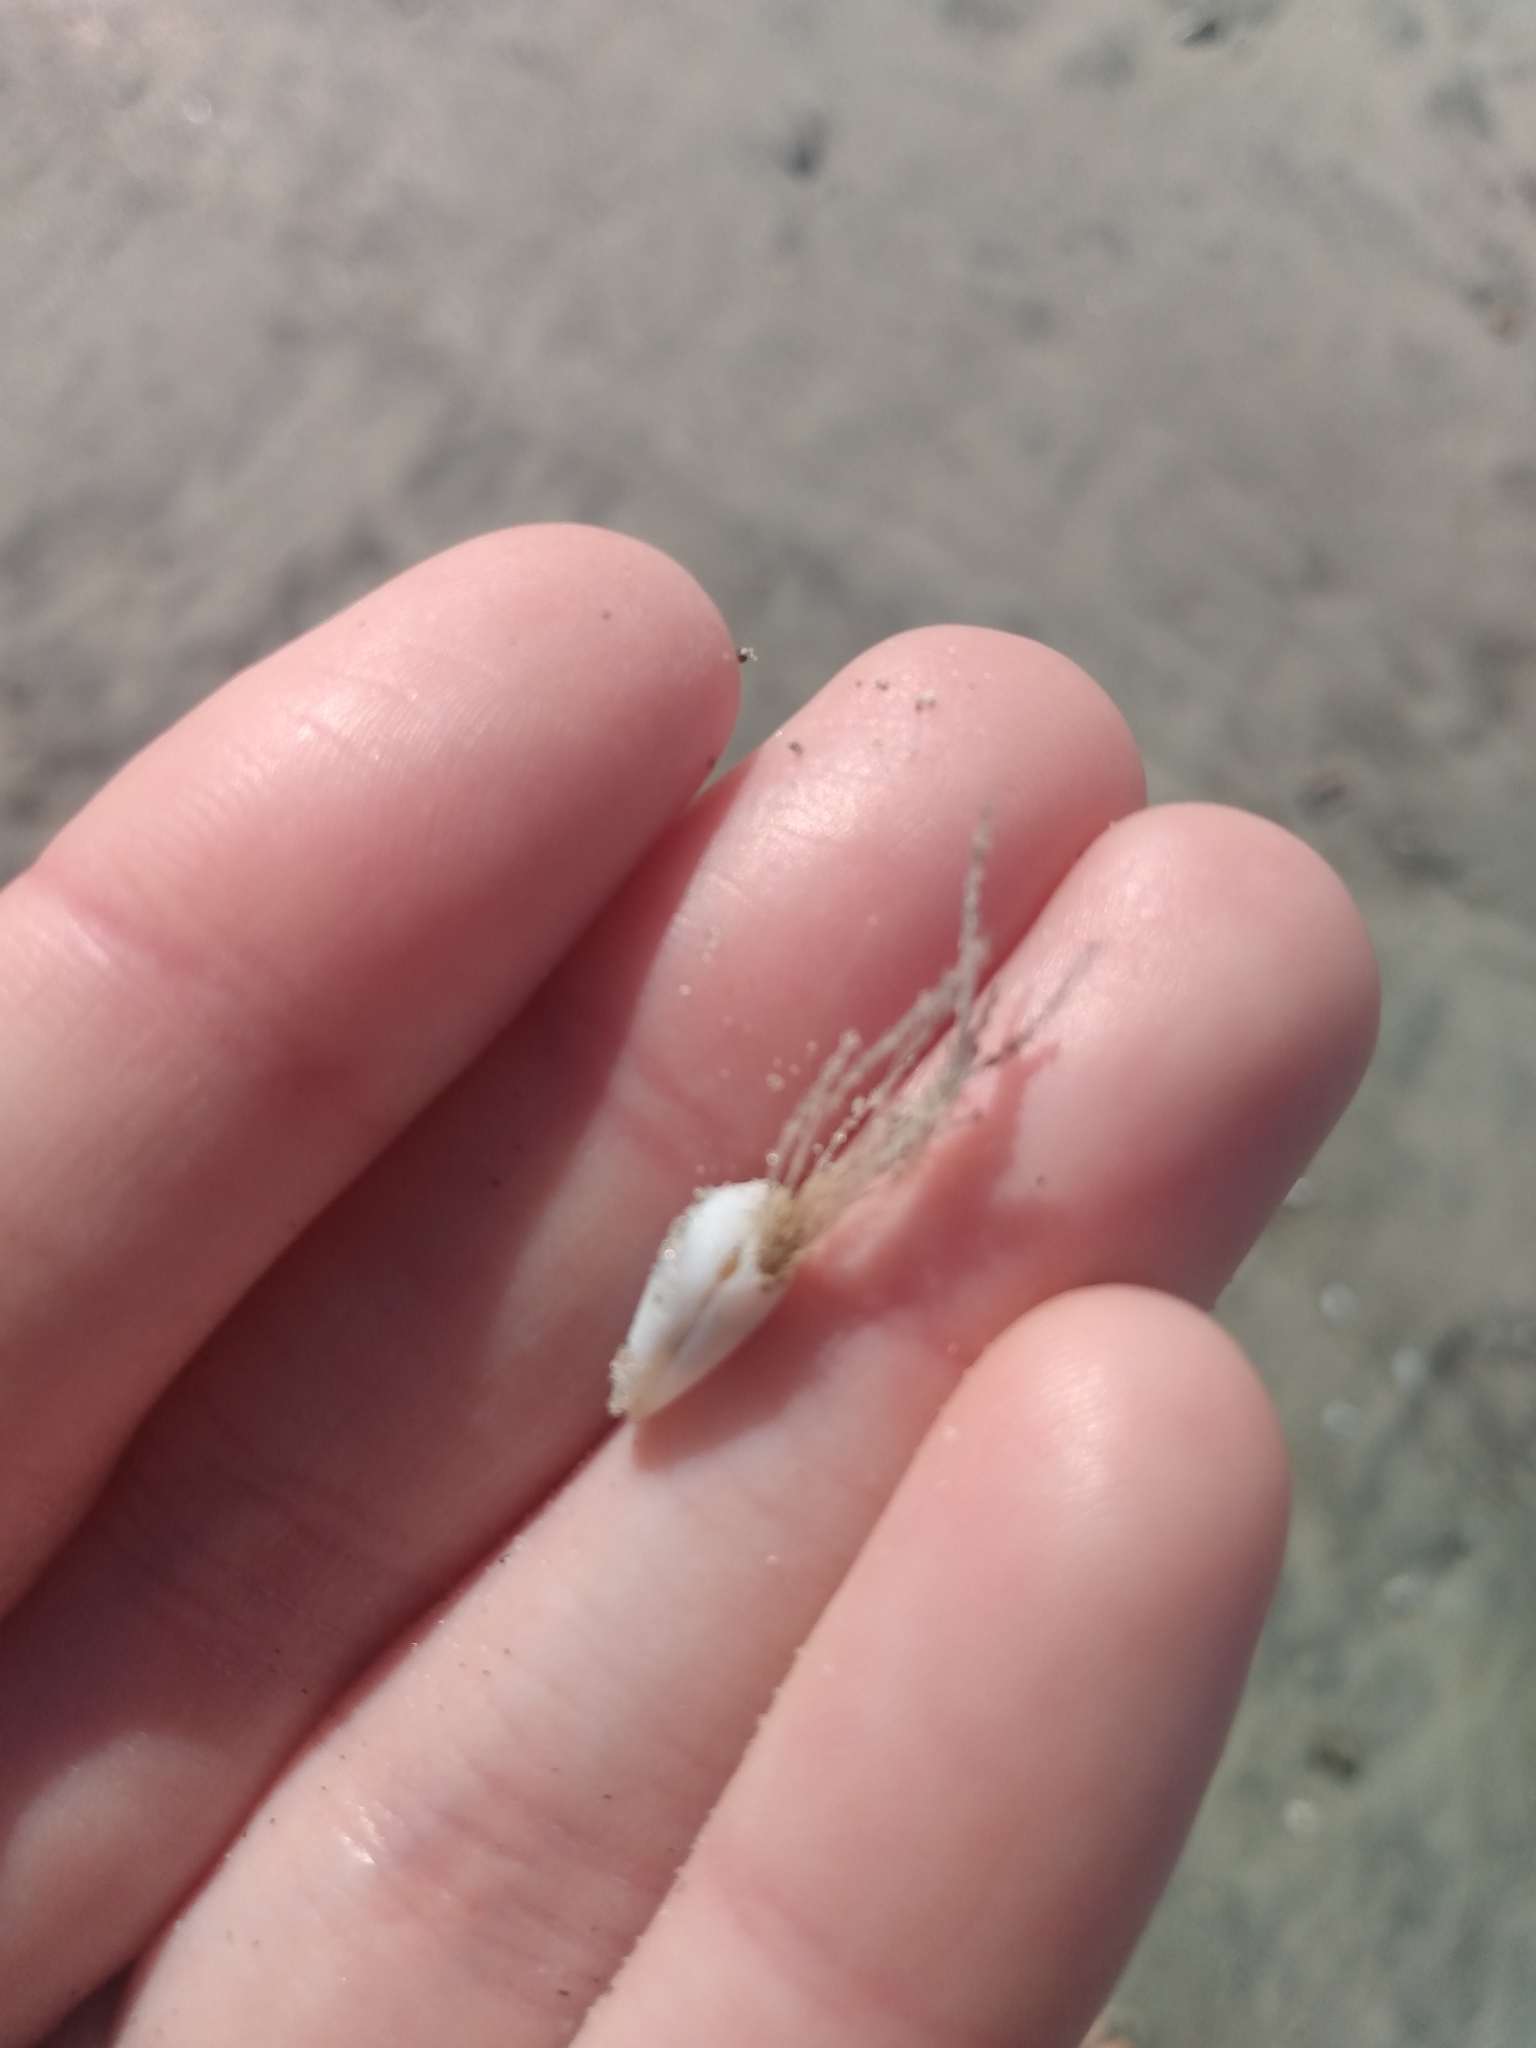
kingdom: Animalia
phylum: Cnidaria
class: Hydrozoa
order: Leptothecata
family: Lovenellidae
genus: Eucheilota
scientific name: Eucheilota bakeri
